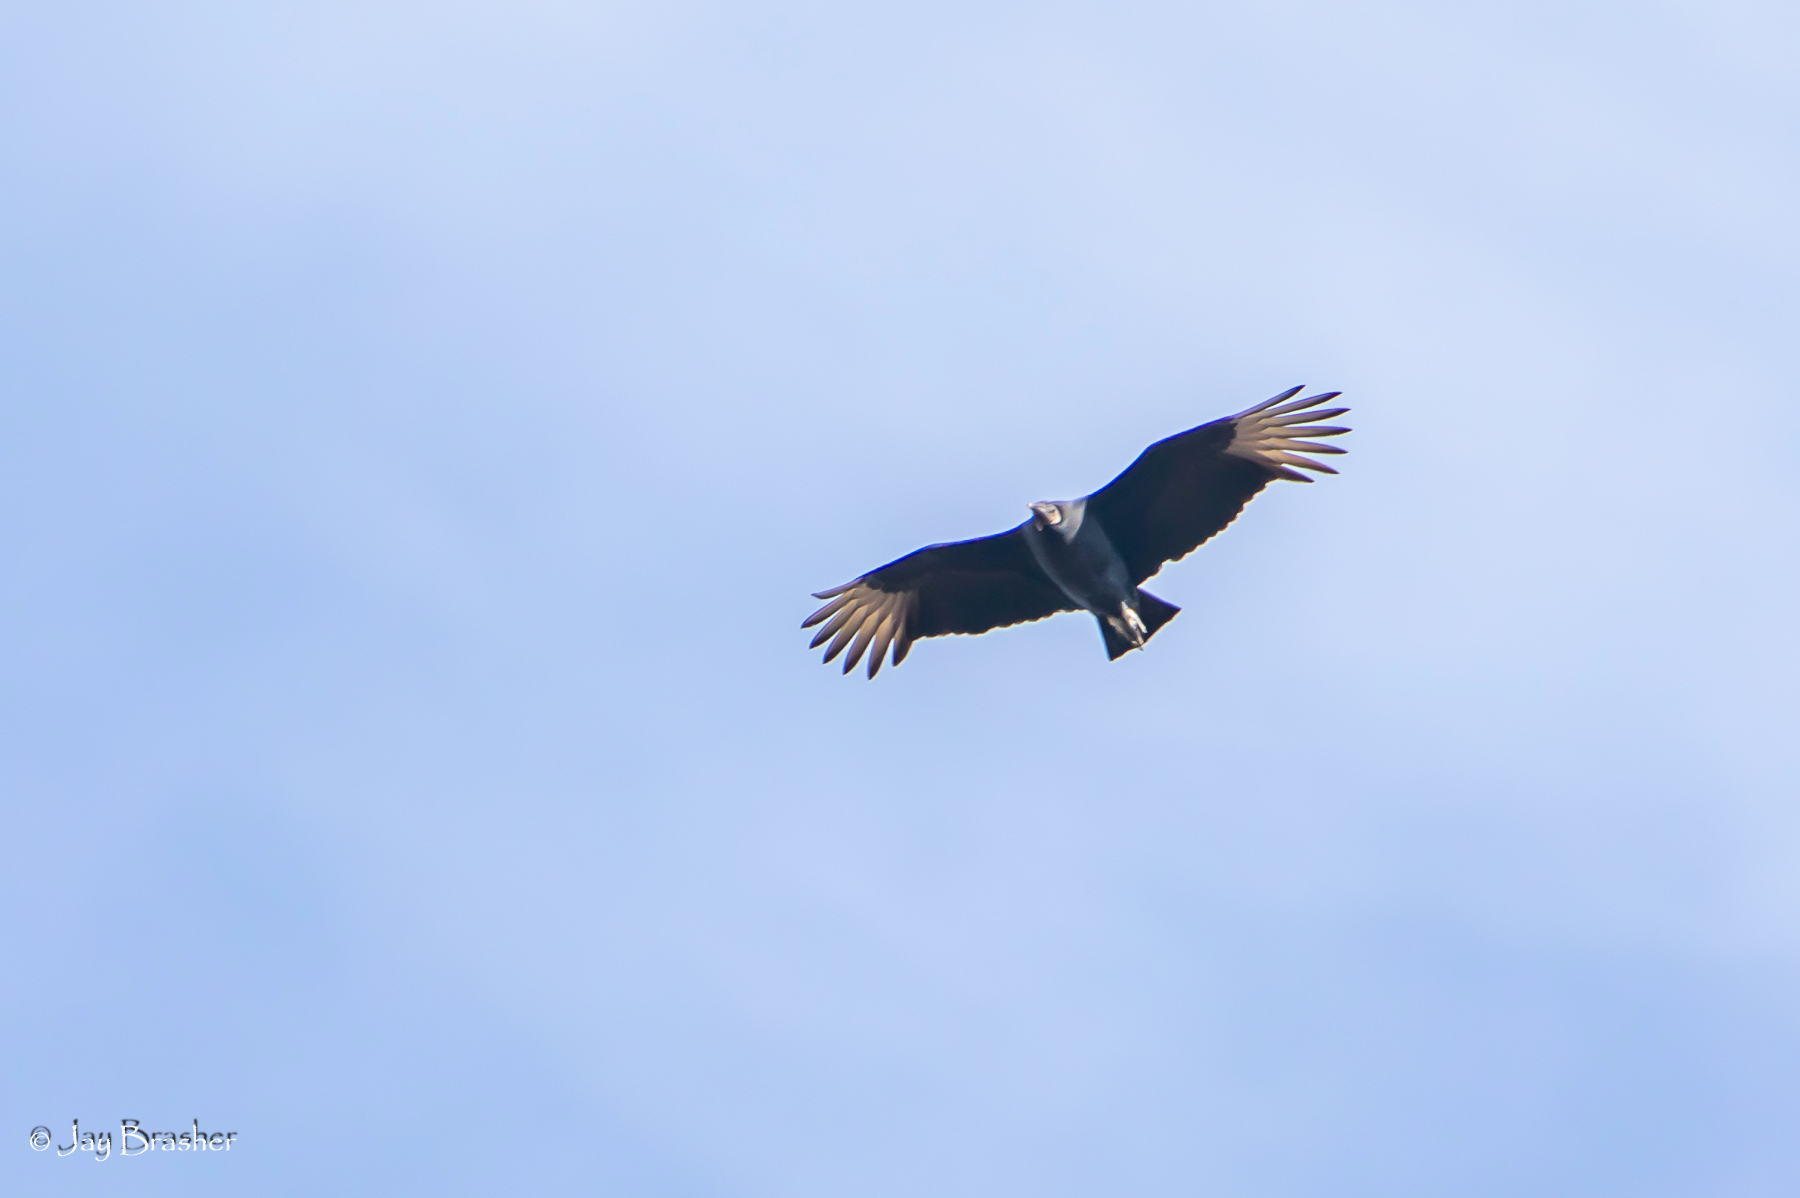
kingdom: Animalia
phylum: Chordata
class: Aves
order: Accipitriformes
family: Cathartidae
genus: Coragyps
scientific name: Coragyps atratus
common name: Black vulture
